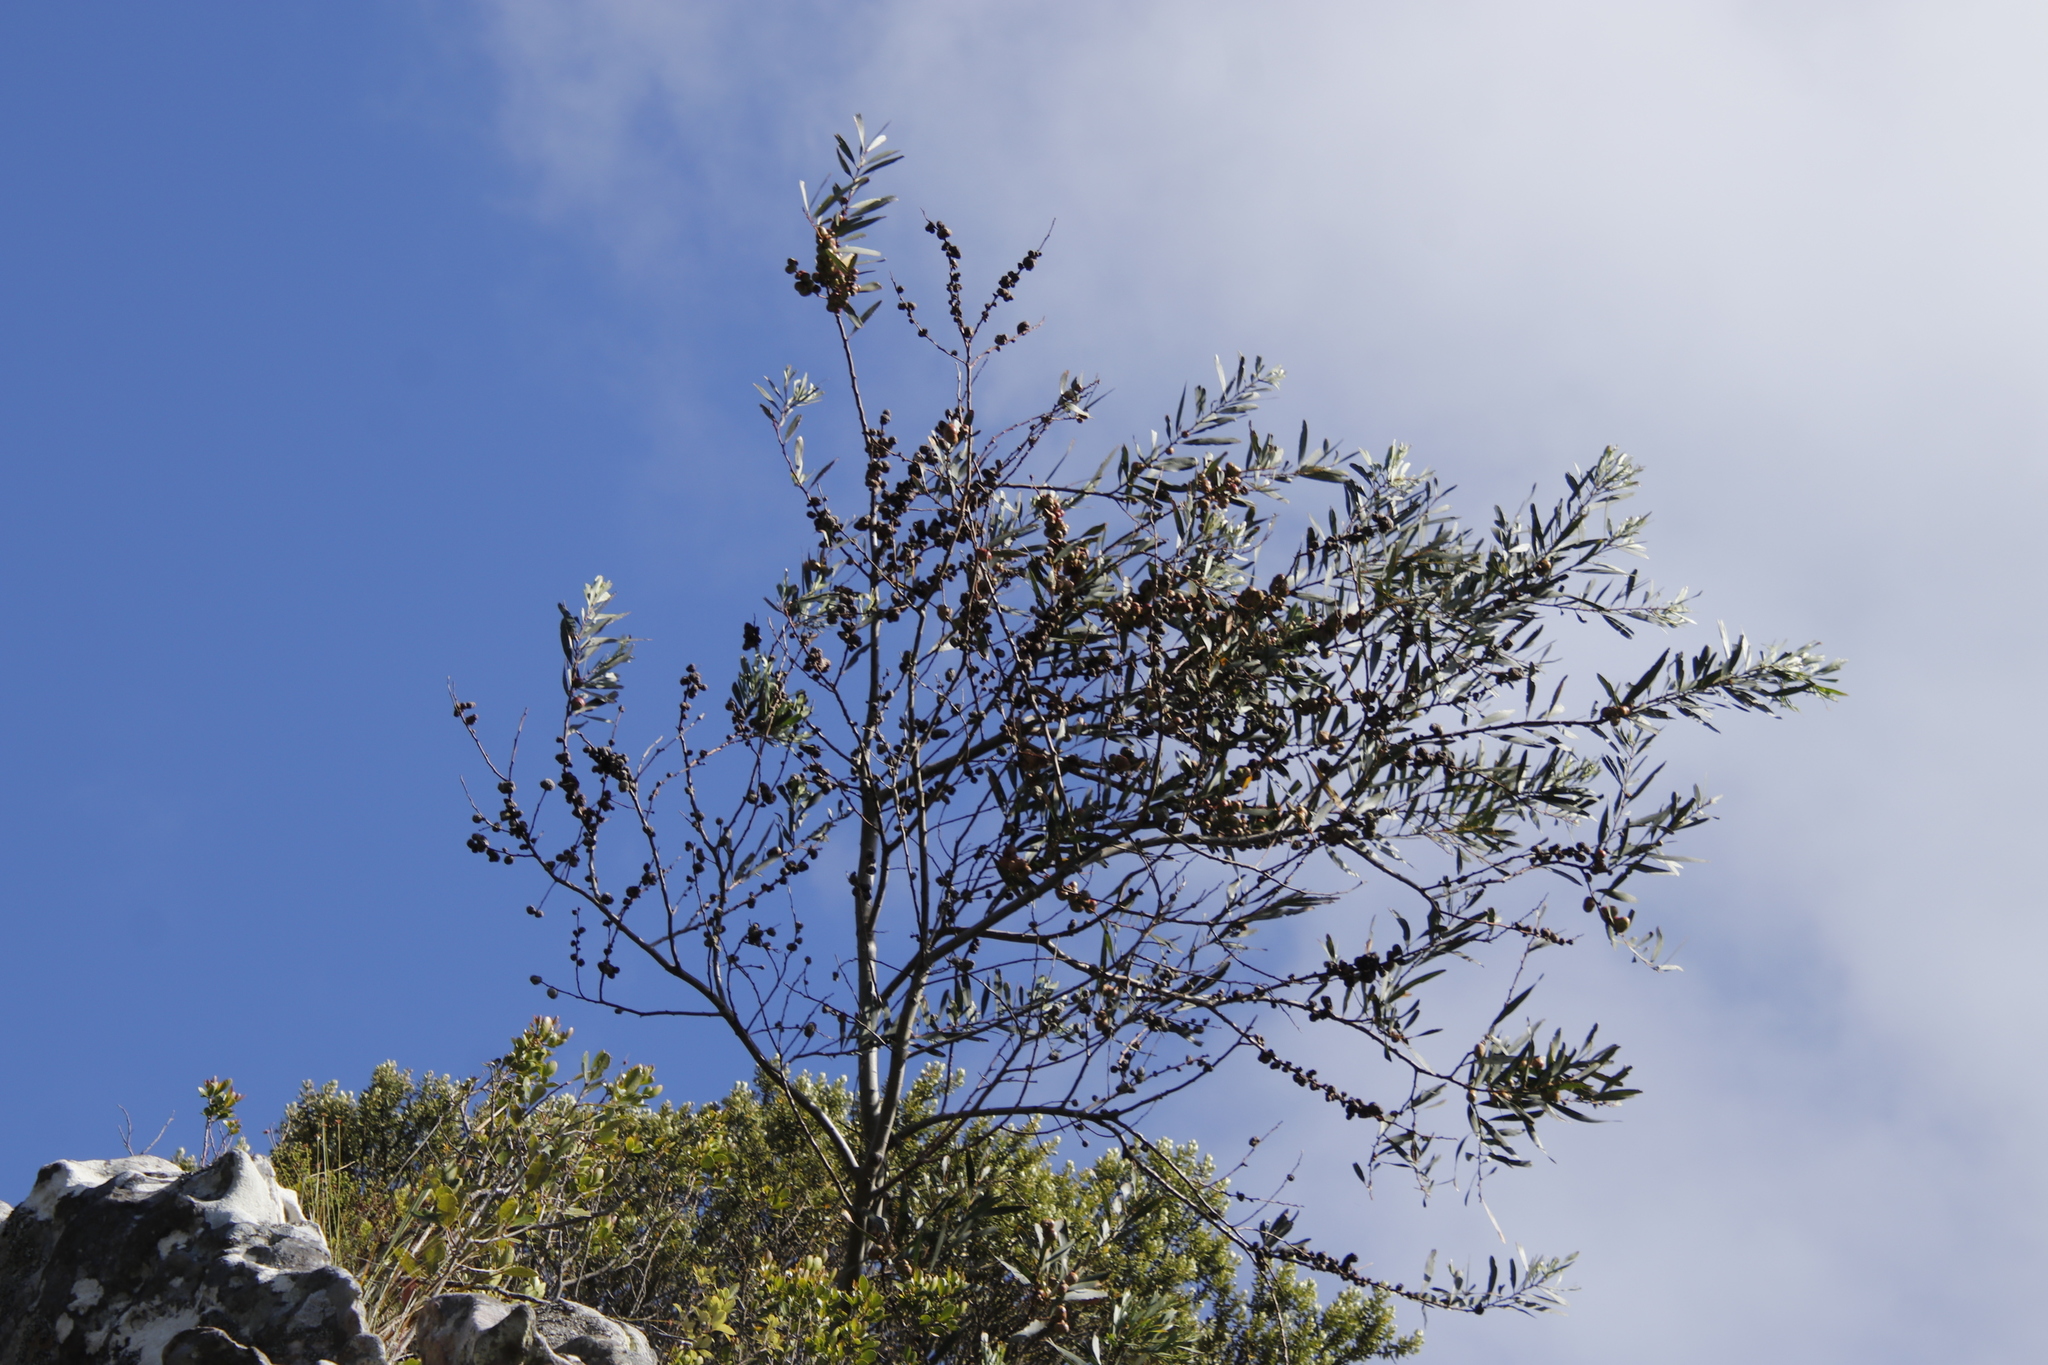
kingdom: Plantae
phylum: Tracheophyta
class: Magnoliopsida
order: Fabales
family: Fabaceae
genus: Acacia
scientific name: Acacia longifolia
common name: Sydney golden wattle
